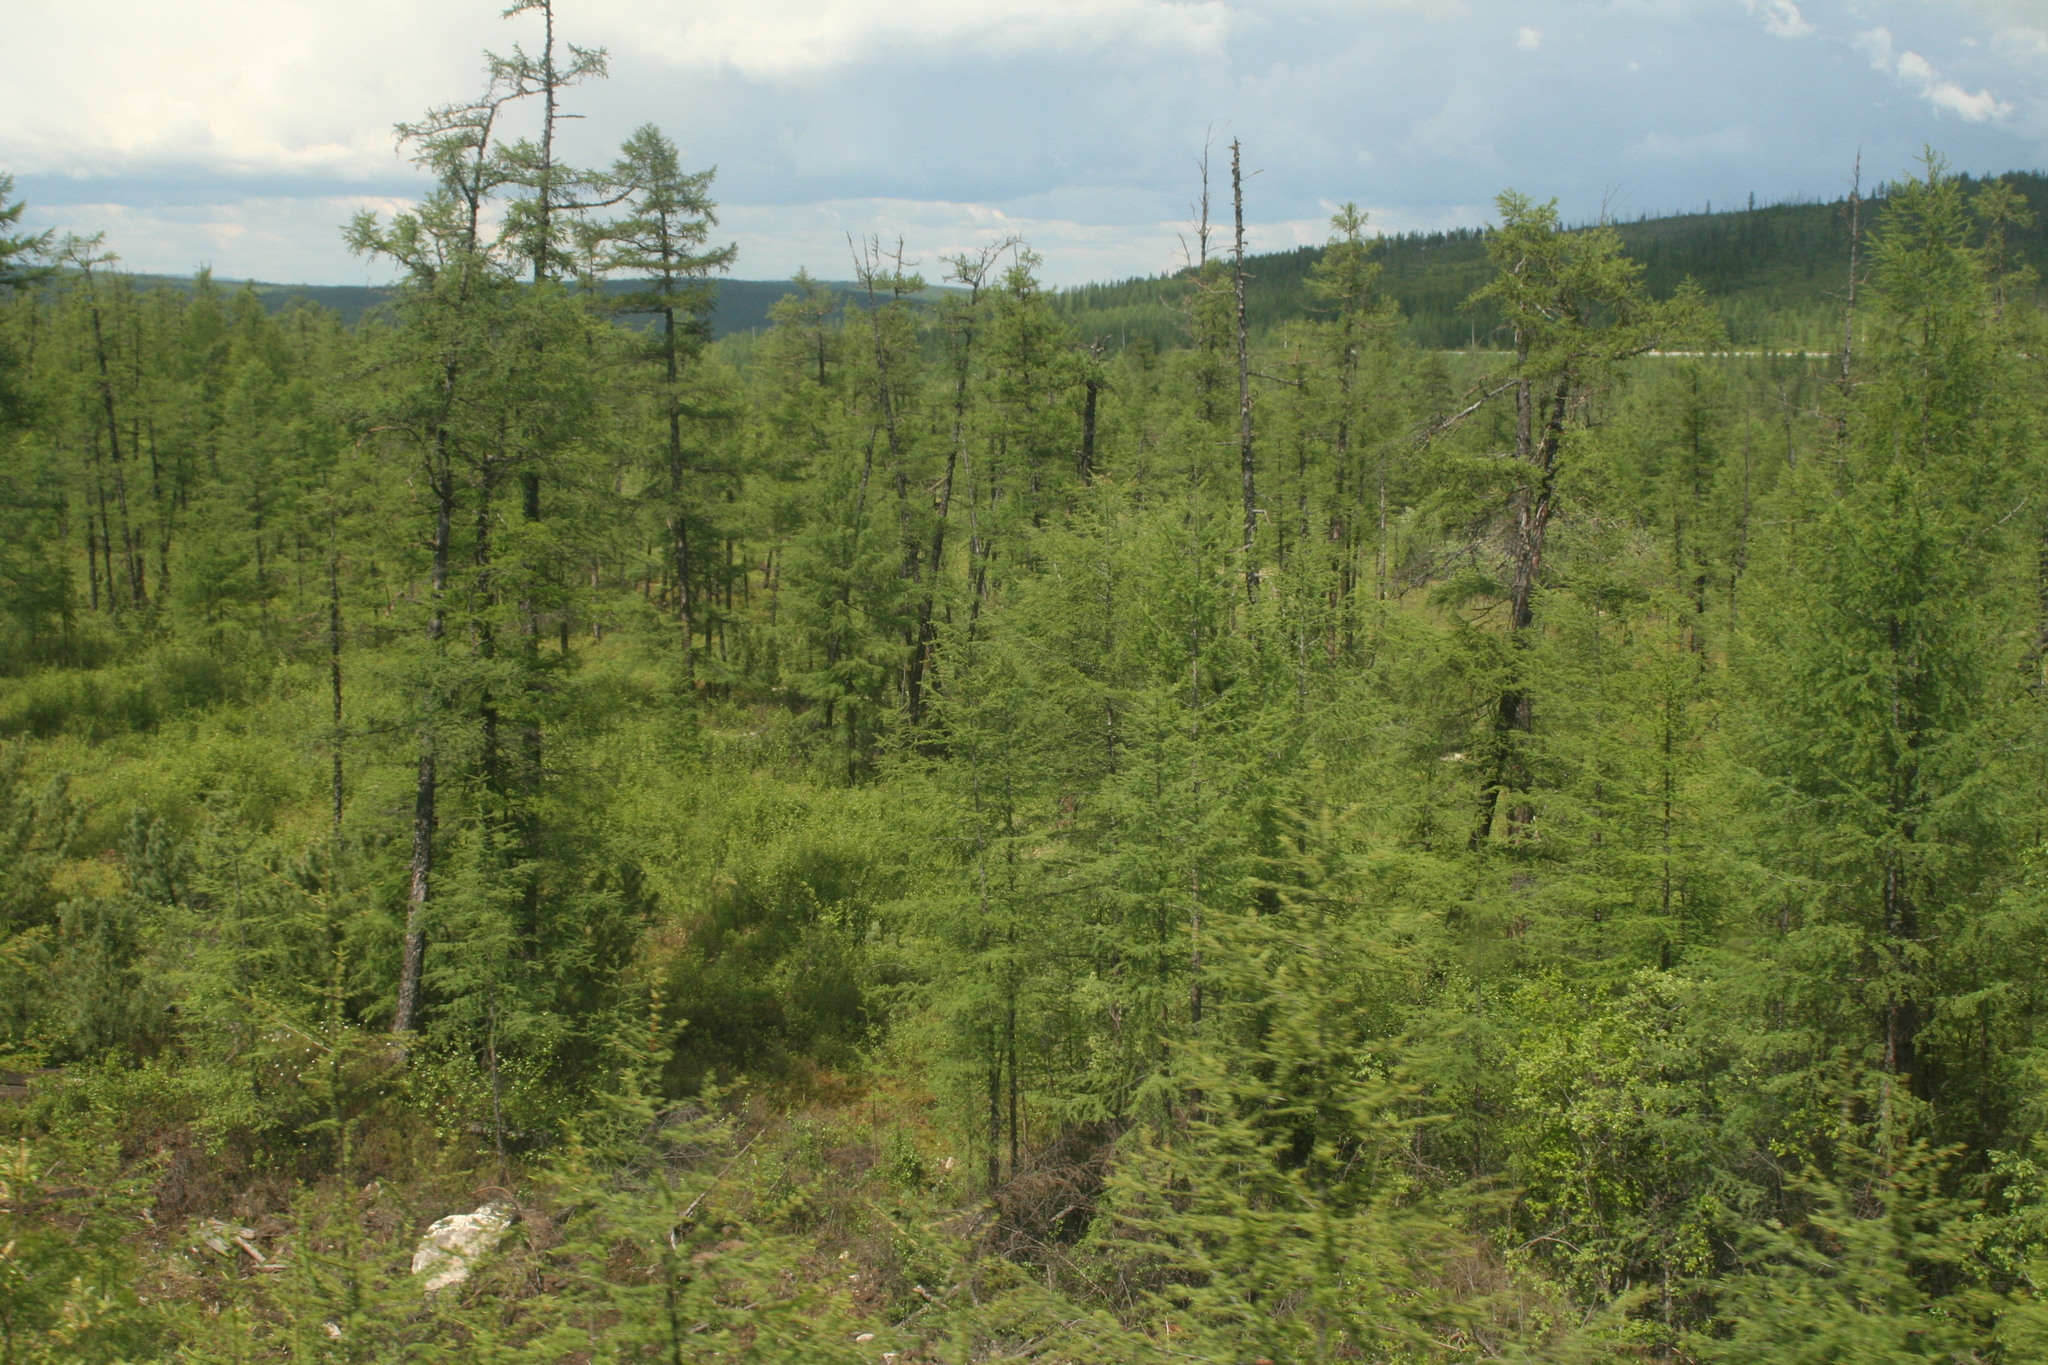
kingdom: Plantae
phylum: Tracheophyta
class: Pinopsida
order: Pinales
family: Pinaceae
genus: Larix
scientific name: Larix gmelinii
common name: Dahurian larch
